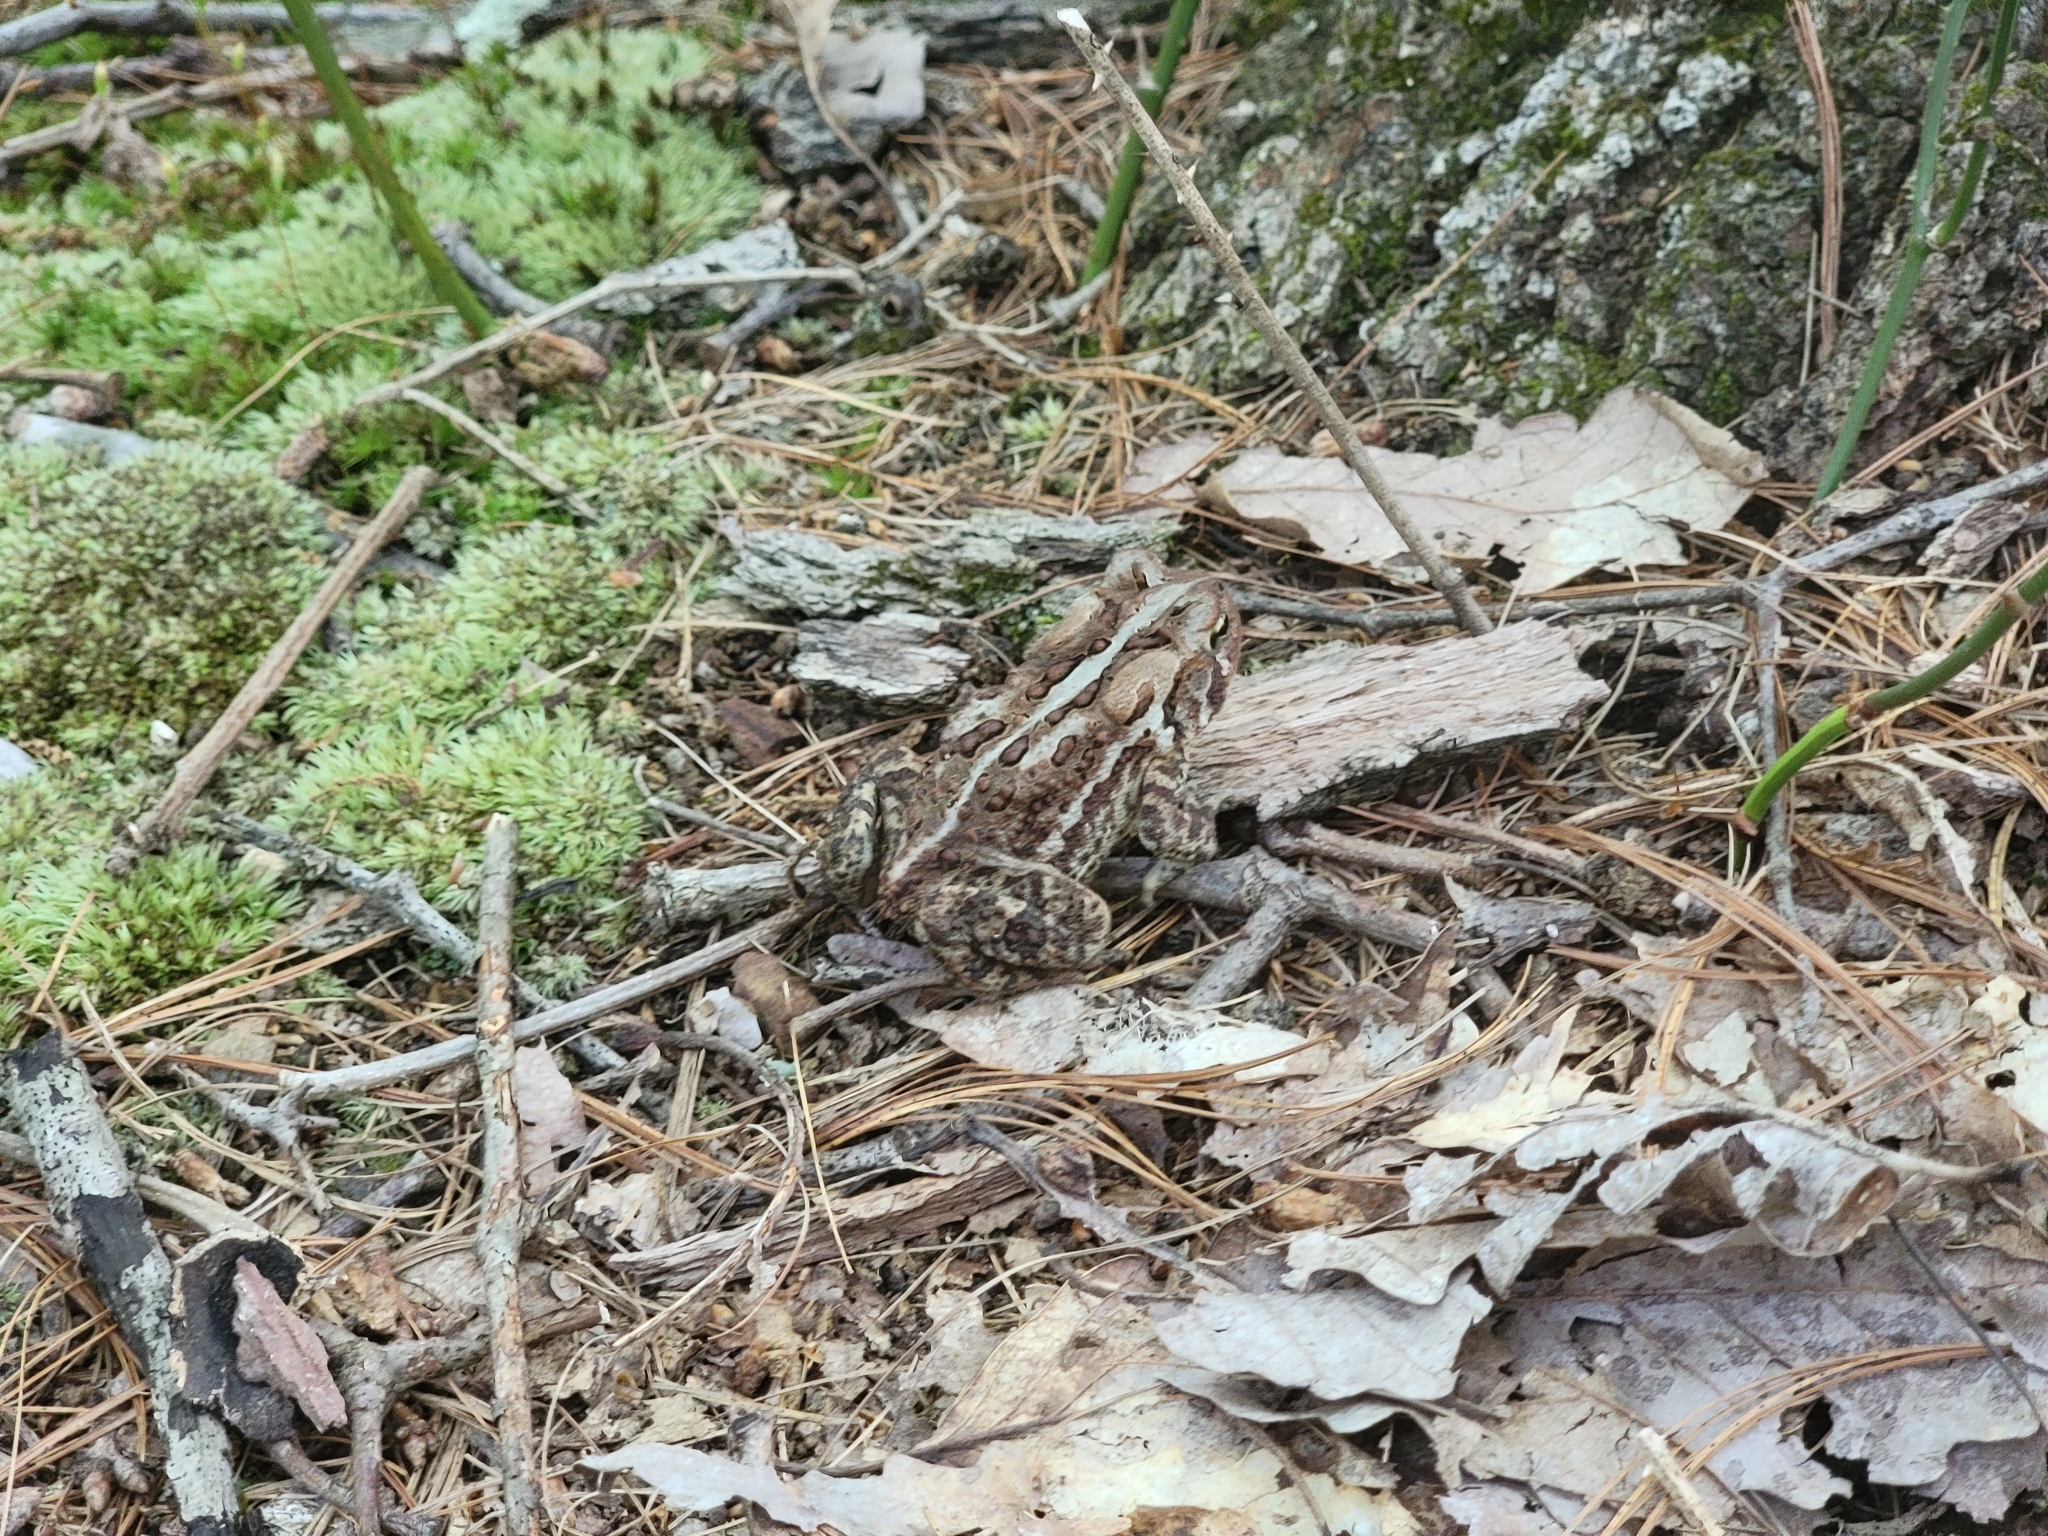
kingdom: Animalia
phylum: Chordata
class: Amphibia
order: Anura
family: Bufonidae
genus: Anaxyrus
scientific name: Anaxyrus americanus
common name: American toad
